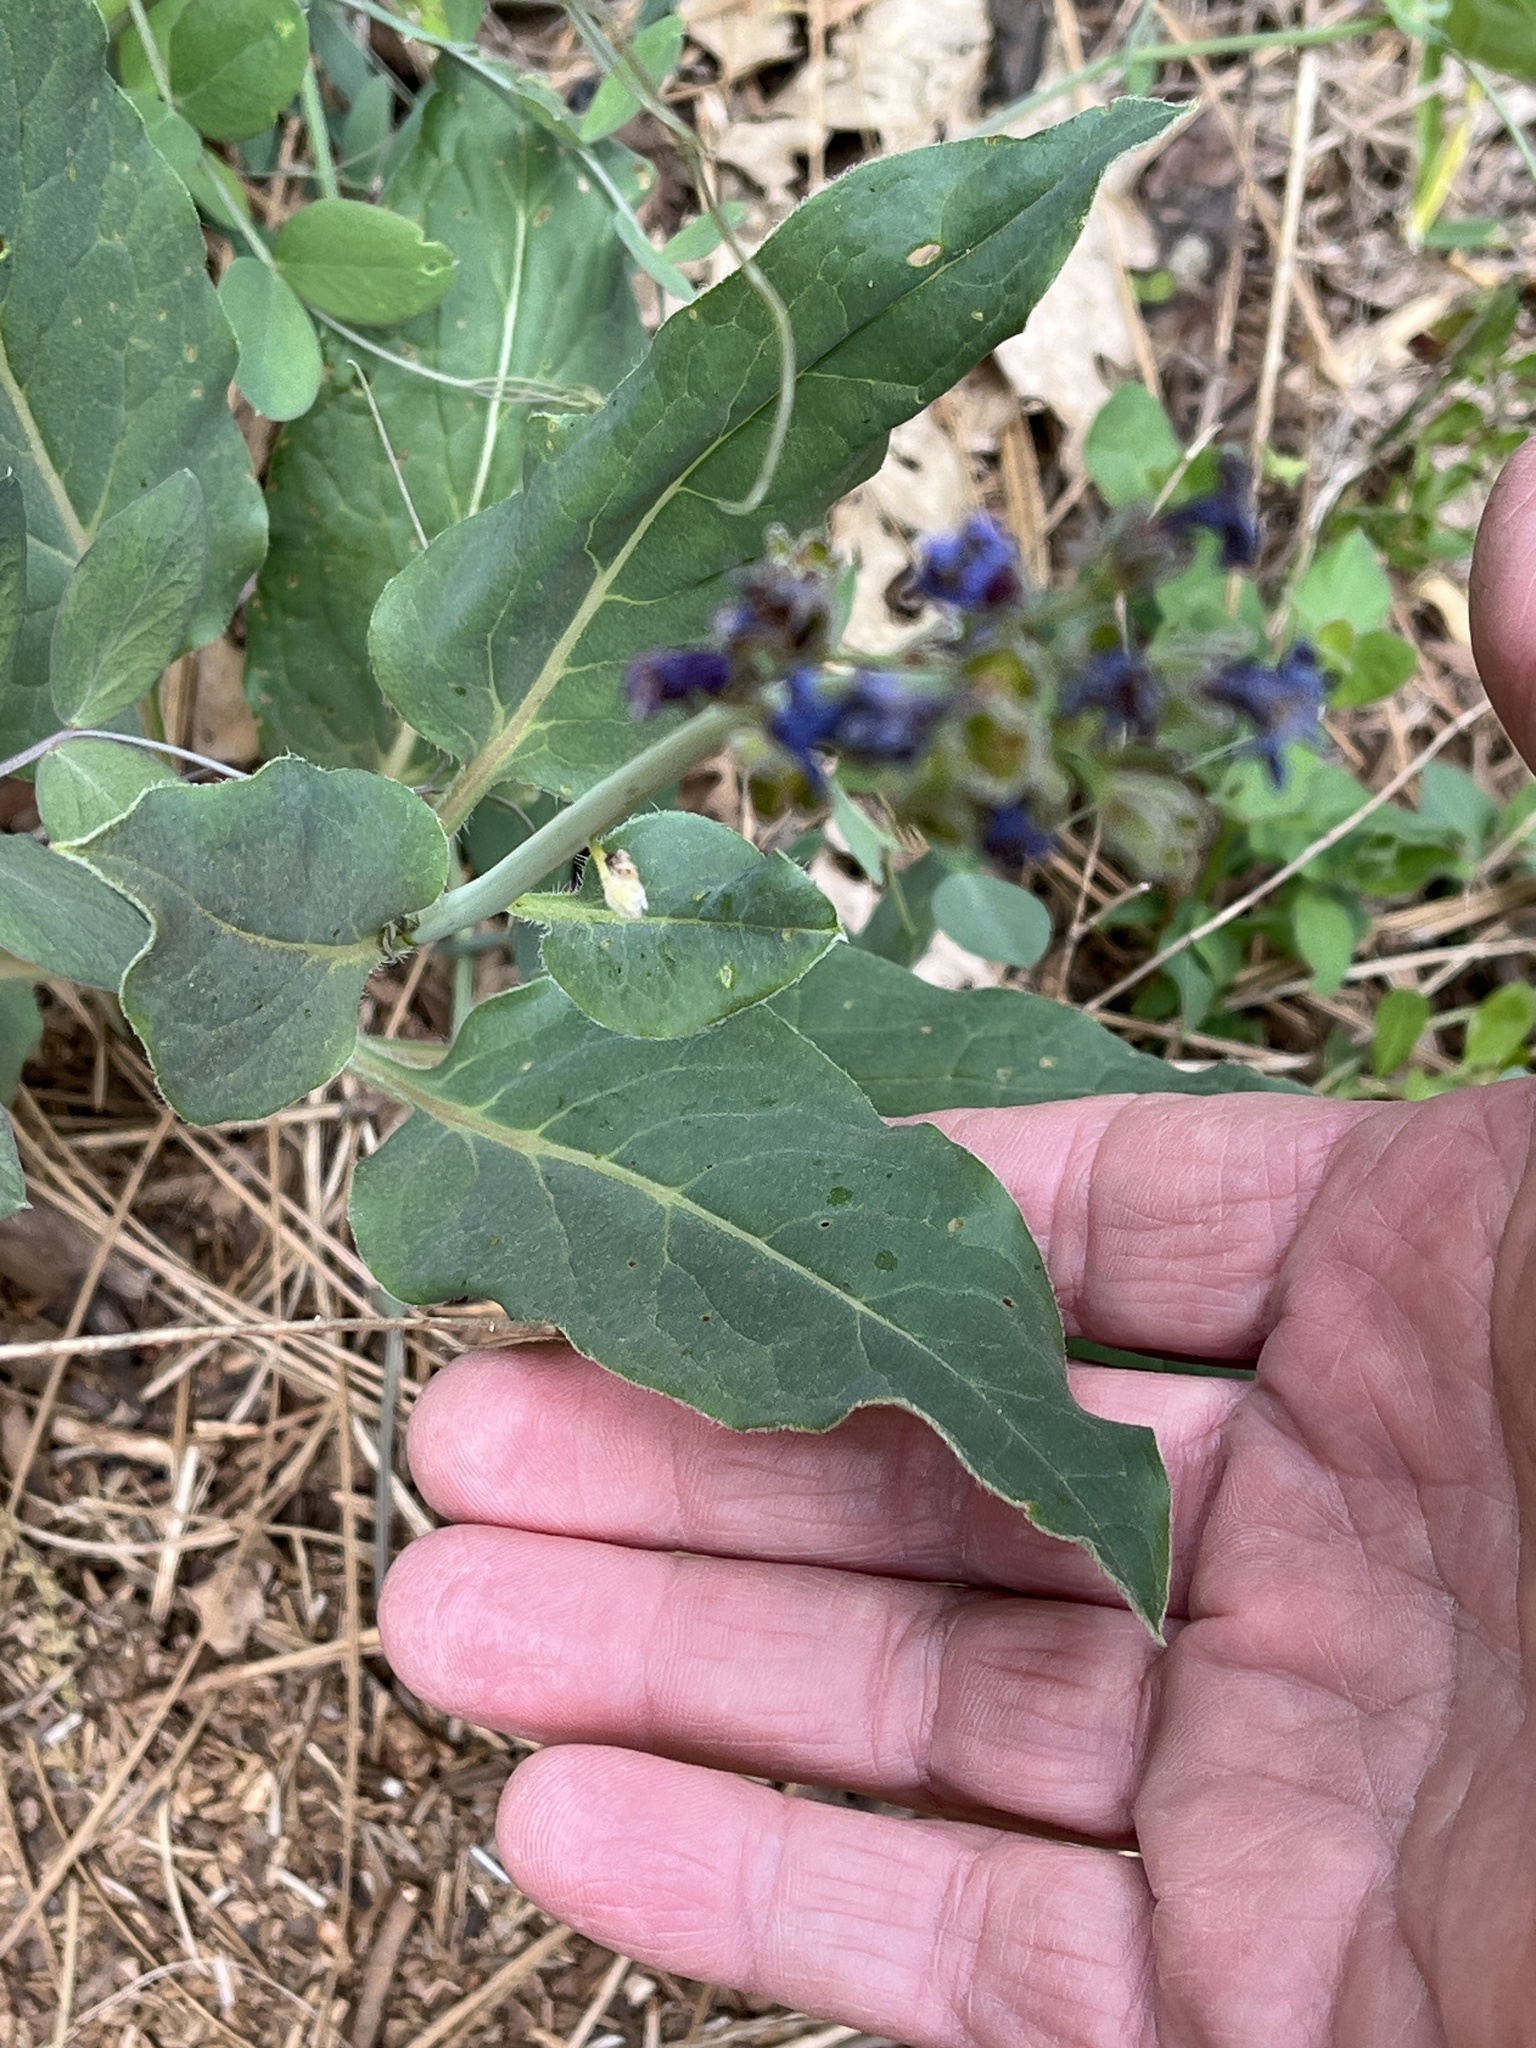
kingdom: Plantae
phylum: Tracheophyta
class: Magnoliopsida
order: Boraginales
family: Boraginaceae
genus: Adelinia
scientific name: Adelinia grande
